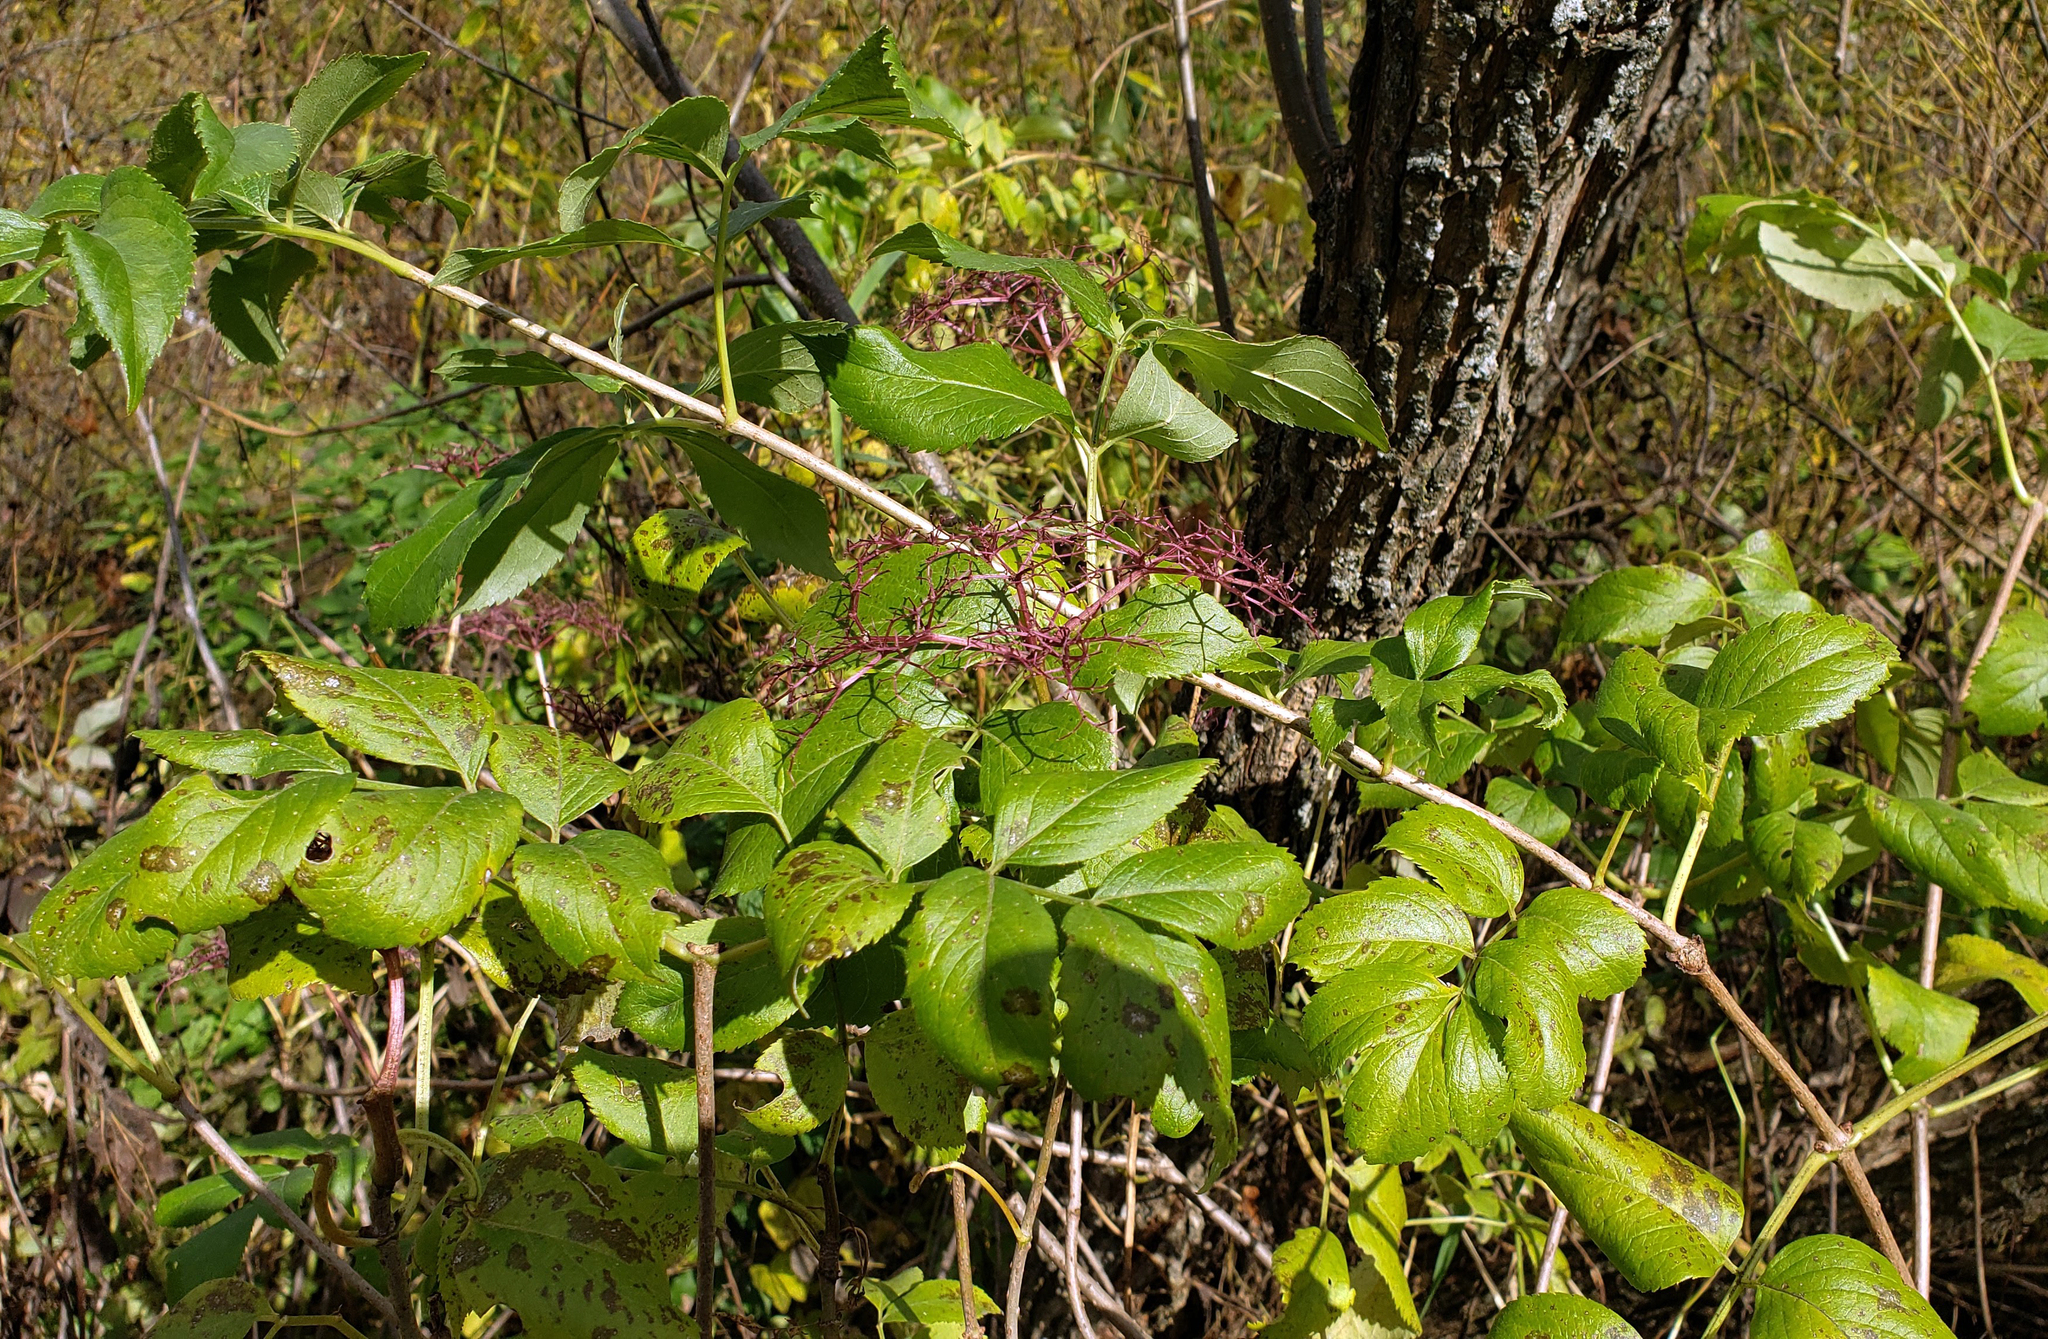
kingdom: Plantae
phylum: Tracheophyta
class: Magnoliopsida
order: Dipsacales
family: Viburnaceae
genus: Sambucus
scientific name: Sambucus canadensis
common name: American elder
